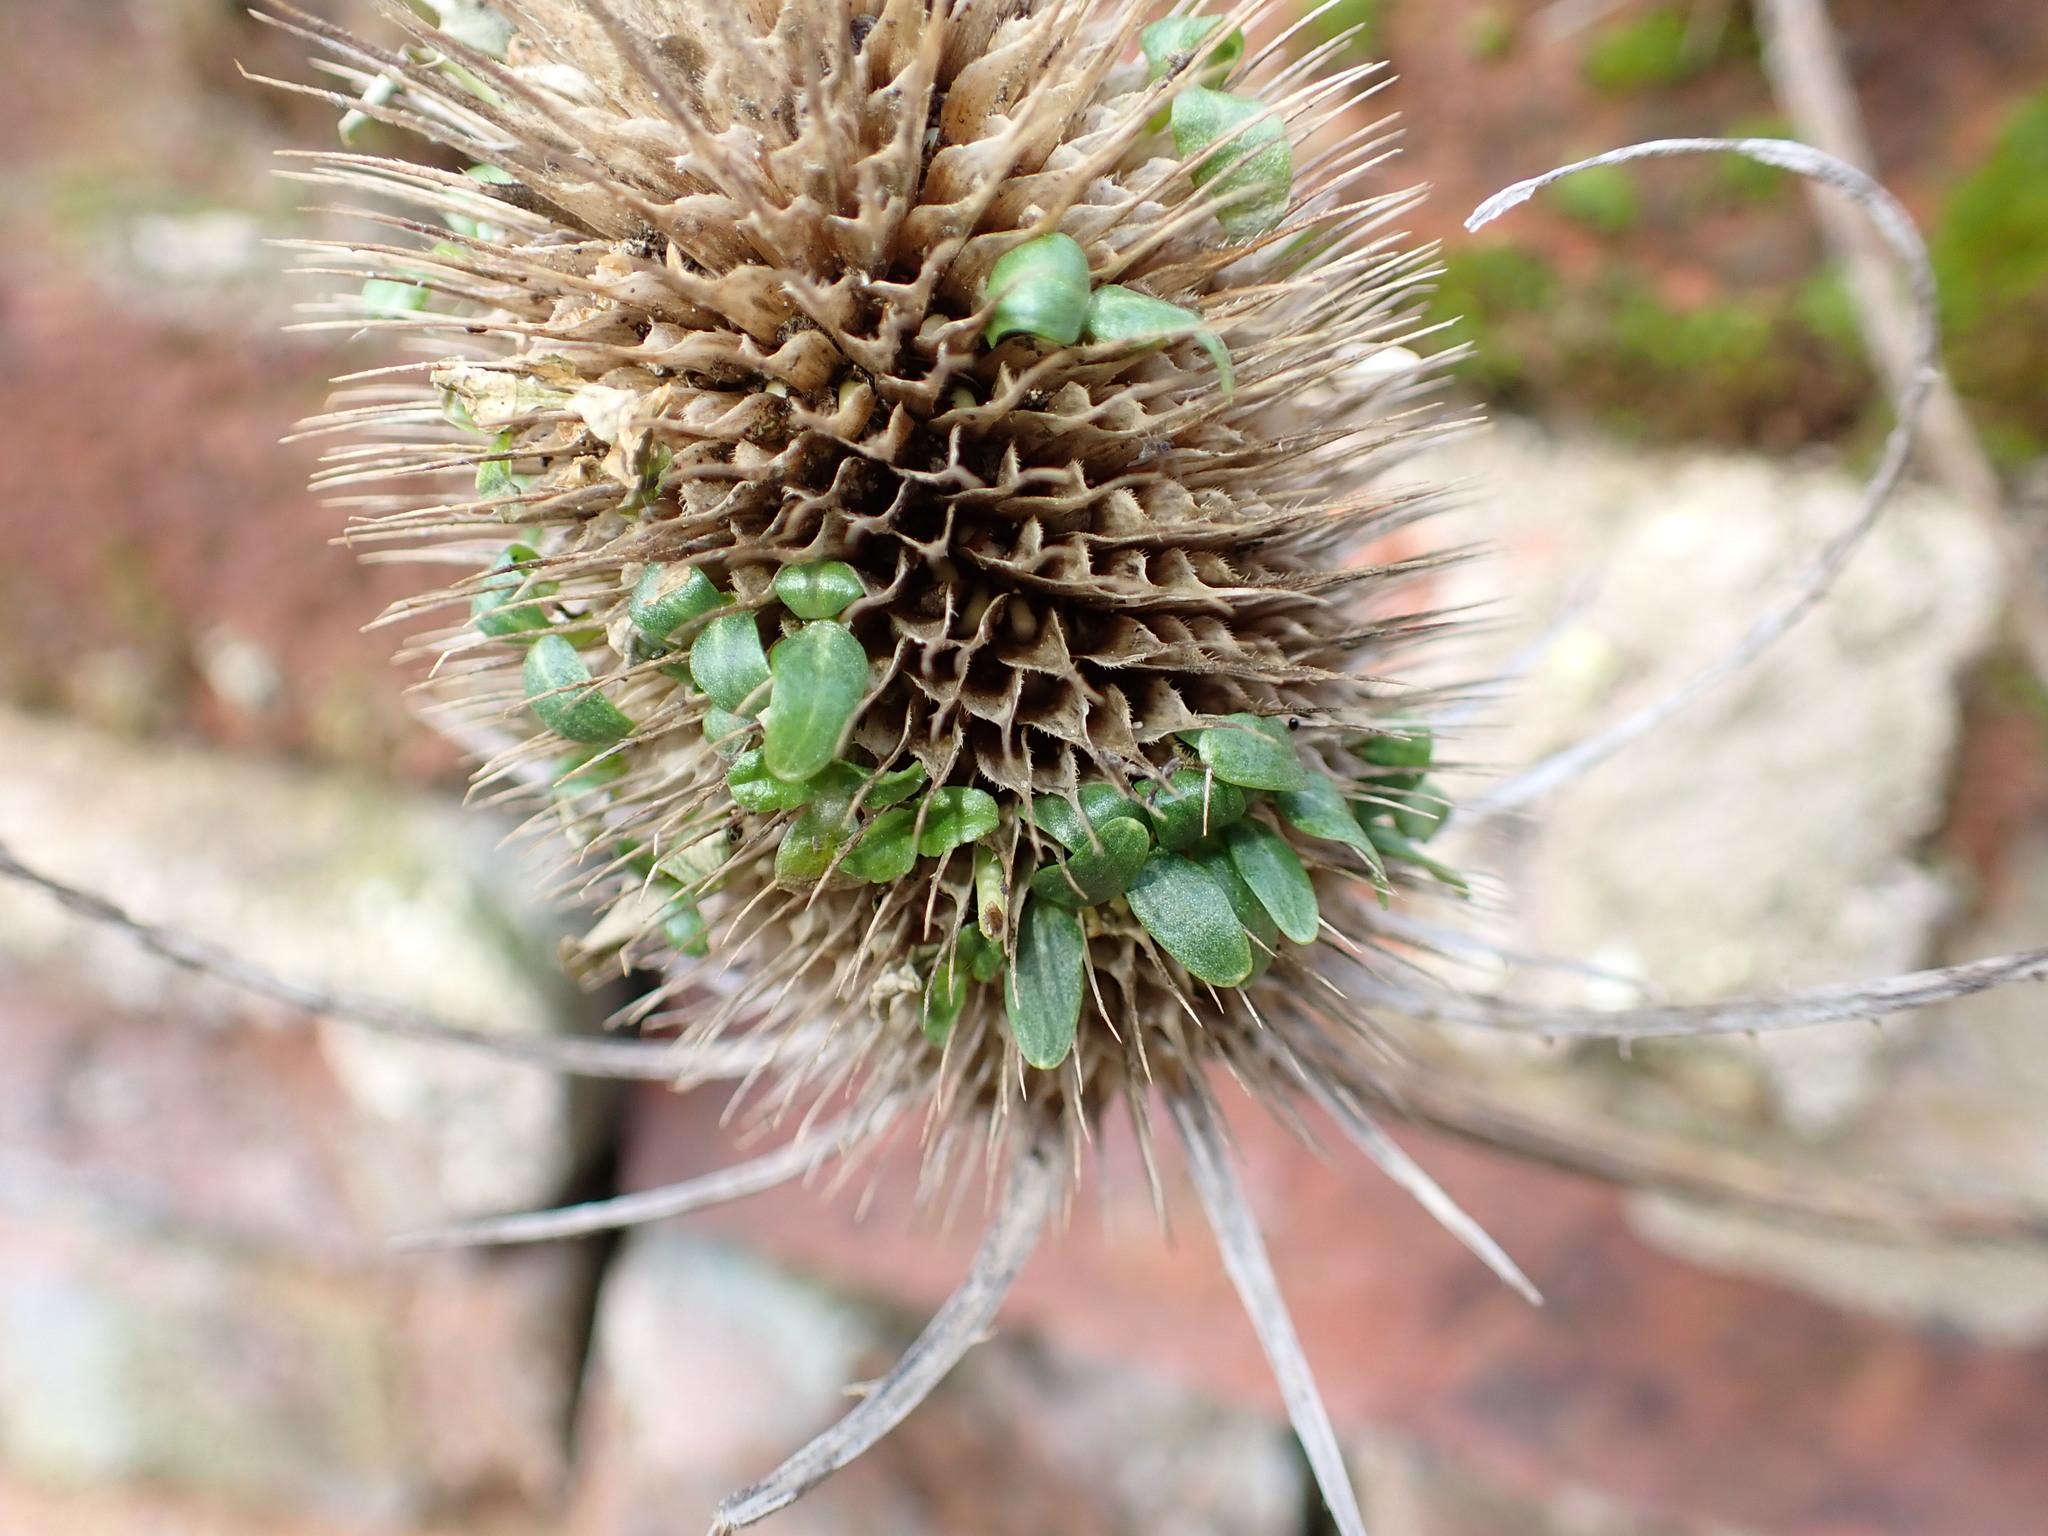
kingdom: Plantae
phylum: Tracheophyta
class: Magnoliopsida
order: Dipsacales
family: Caprifoliaceae
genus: Dipsacus
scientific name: Dipsacus fullonum
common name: Teasel
